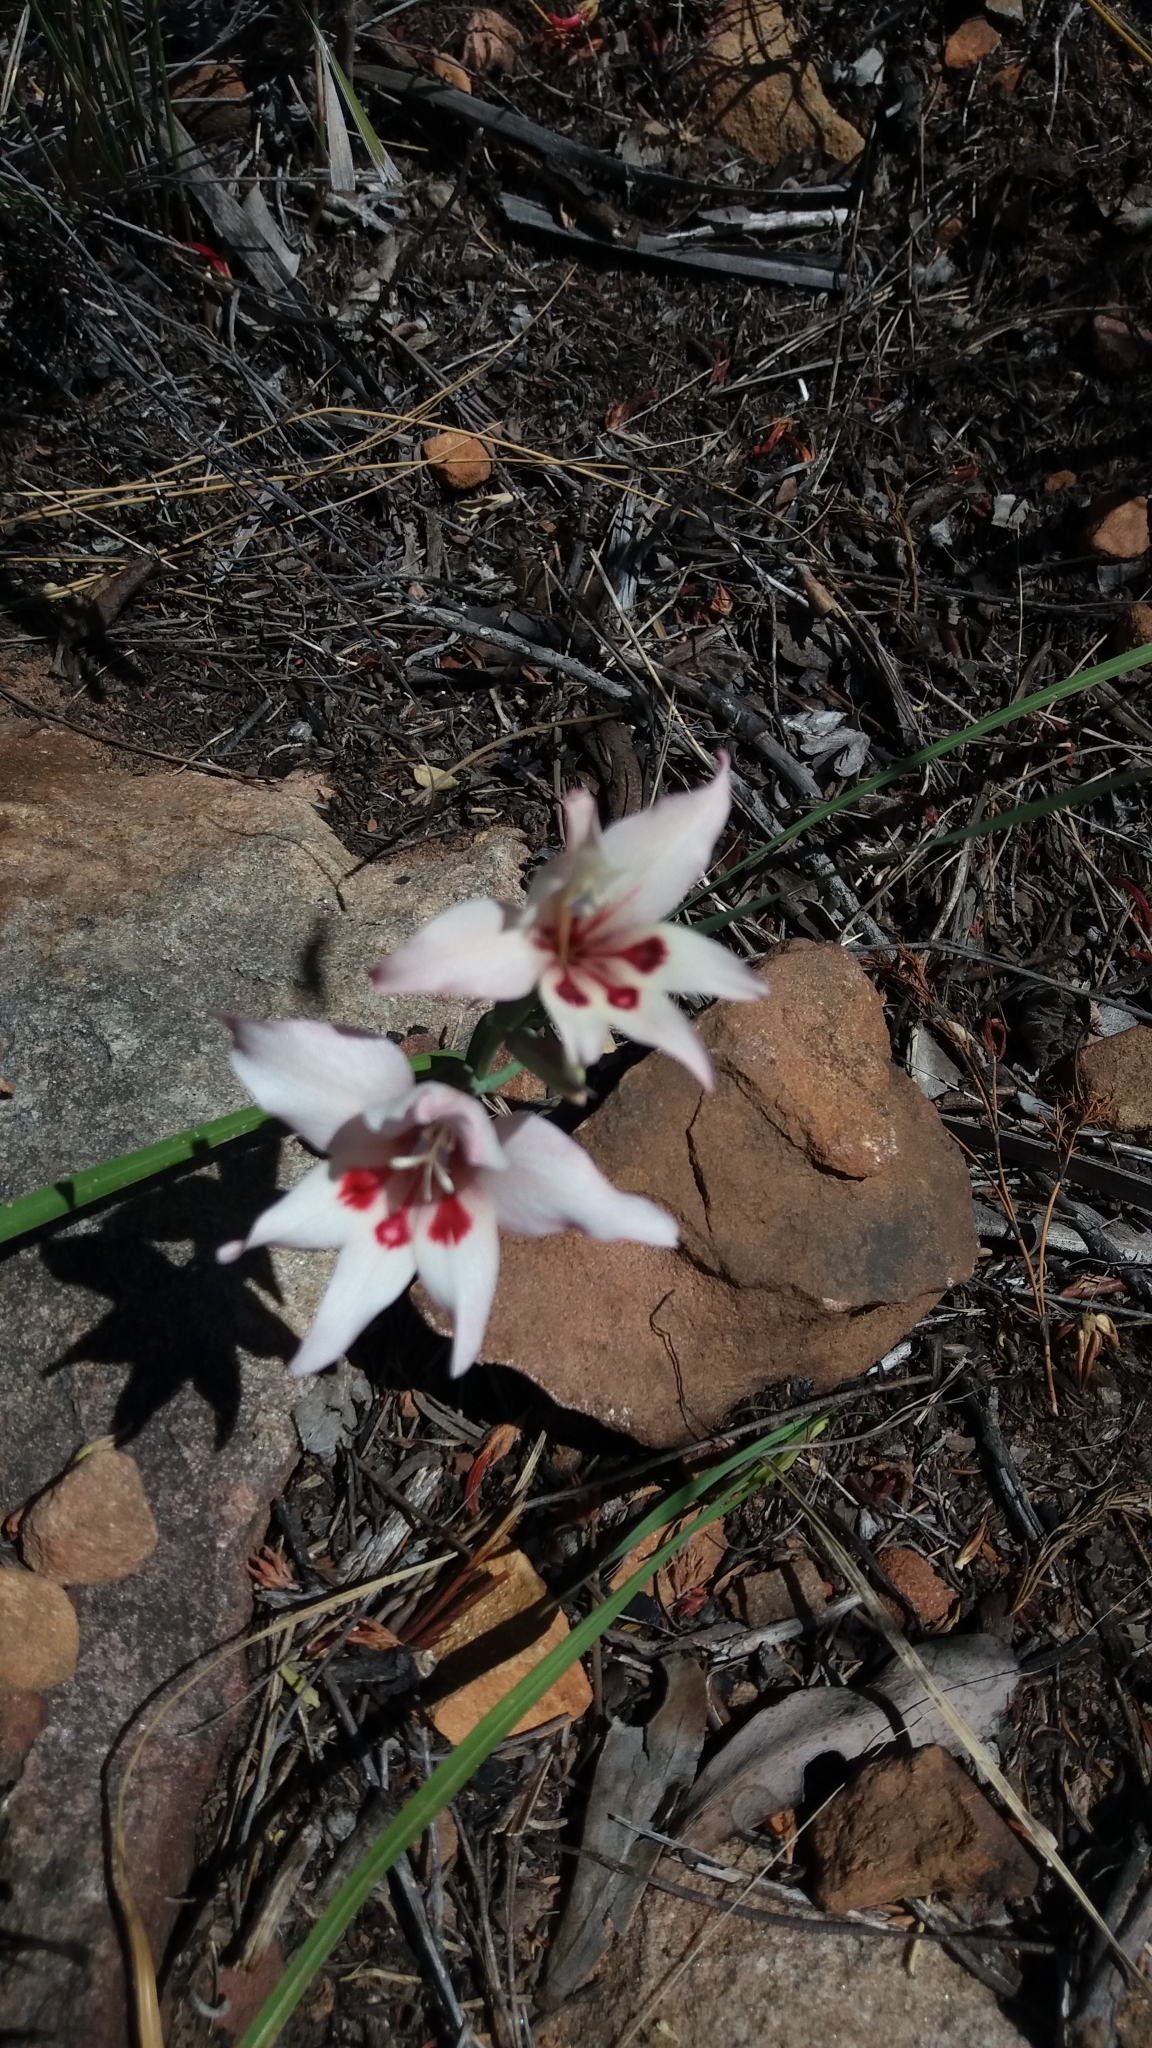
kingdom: Plantae
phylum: Tracheophyta
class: Liliopsida
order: Asparagales
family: Iridaceae
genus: Gladiolus
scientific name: Gladiolus carneus
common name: Painted-lady
